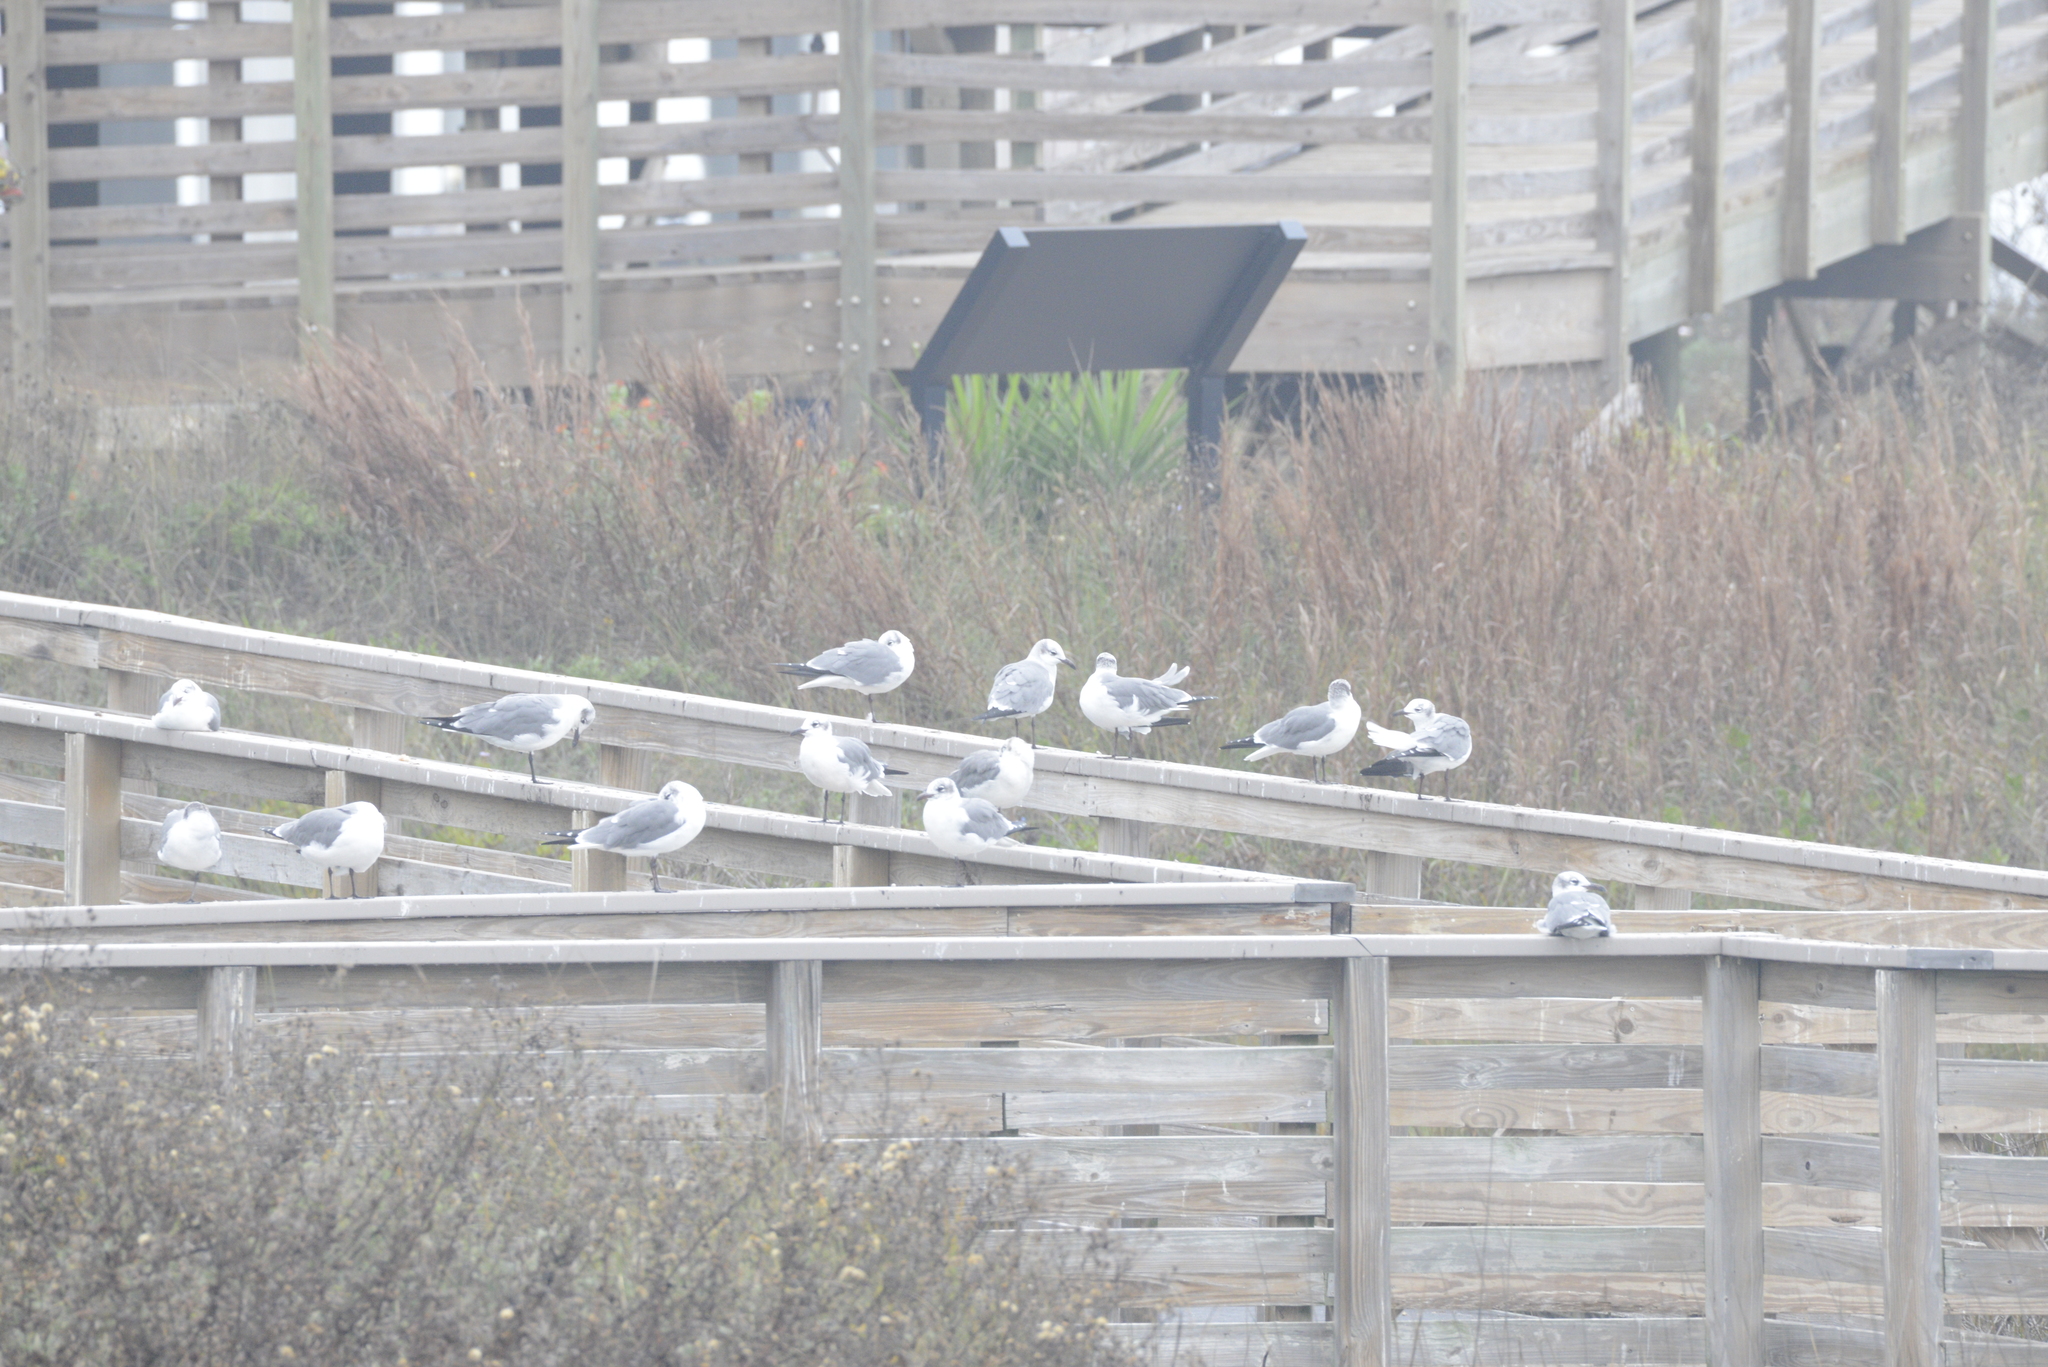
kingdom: Animalia
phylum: Chordata
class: Aves
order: Charadriiformes
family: Laridae
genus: Leucophaeus
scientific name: Leucophaeus atricilla
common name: Laughing gull
